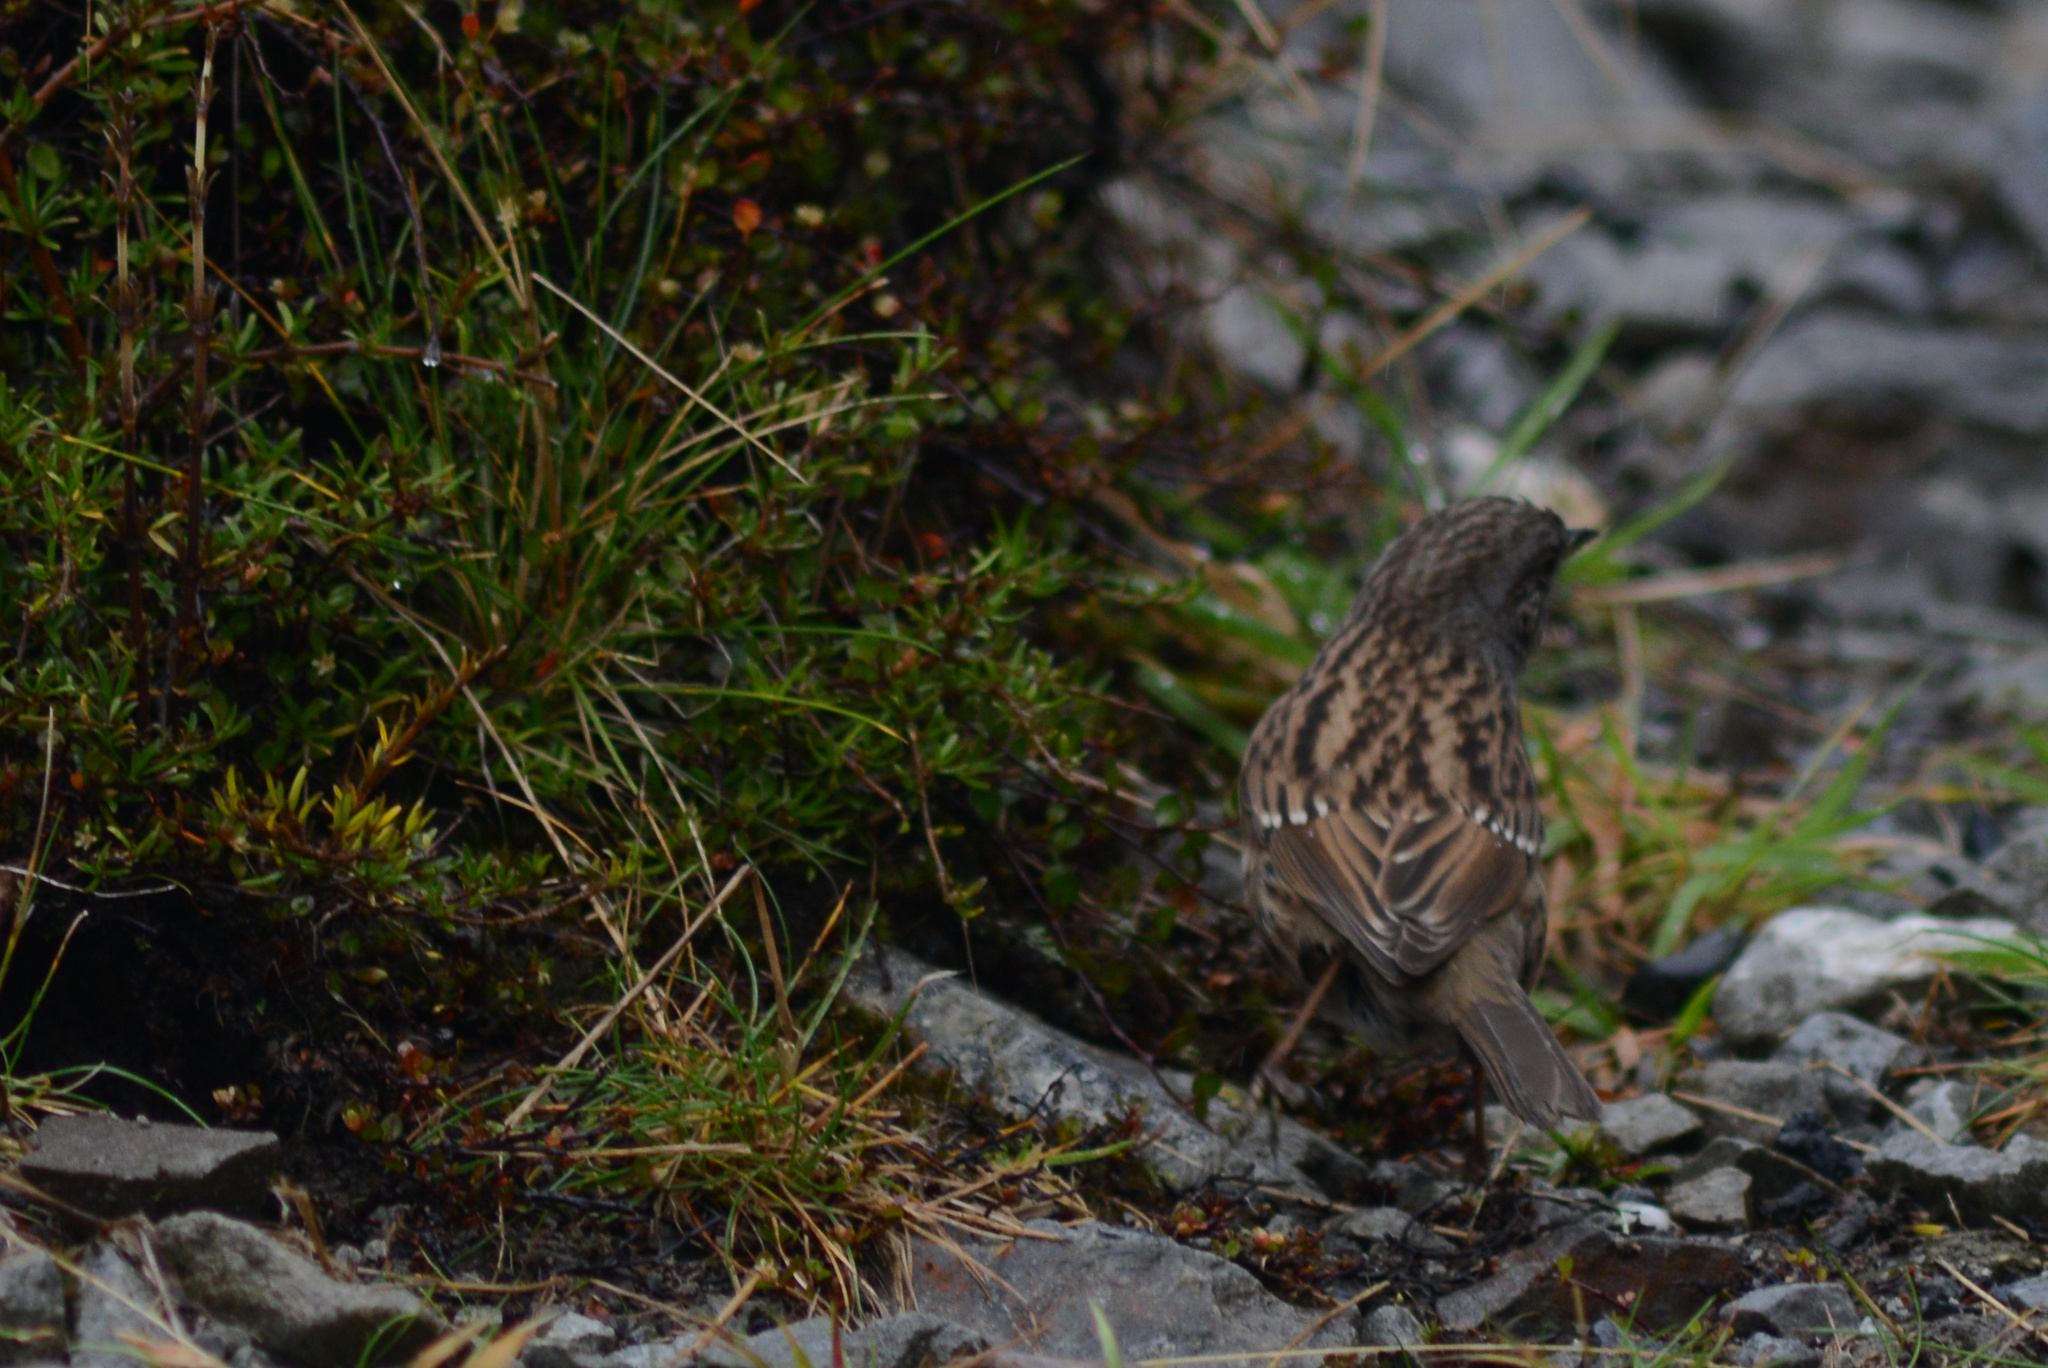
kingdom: Animalia
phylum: Chordata
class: Aves
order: Passeriformes
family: Prunellidae
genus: Prunella
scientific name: Prunella modularis
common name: Dunnock
